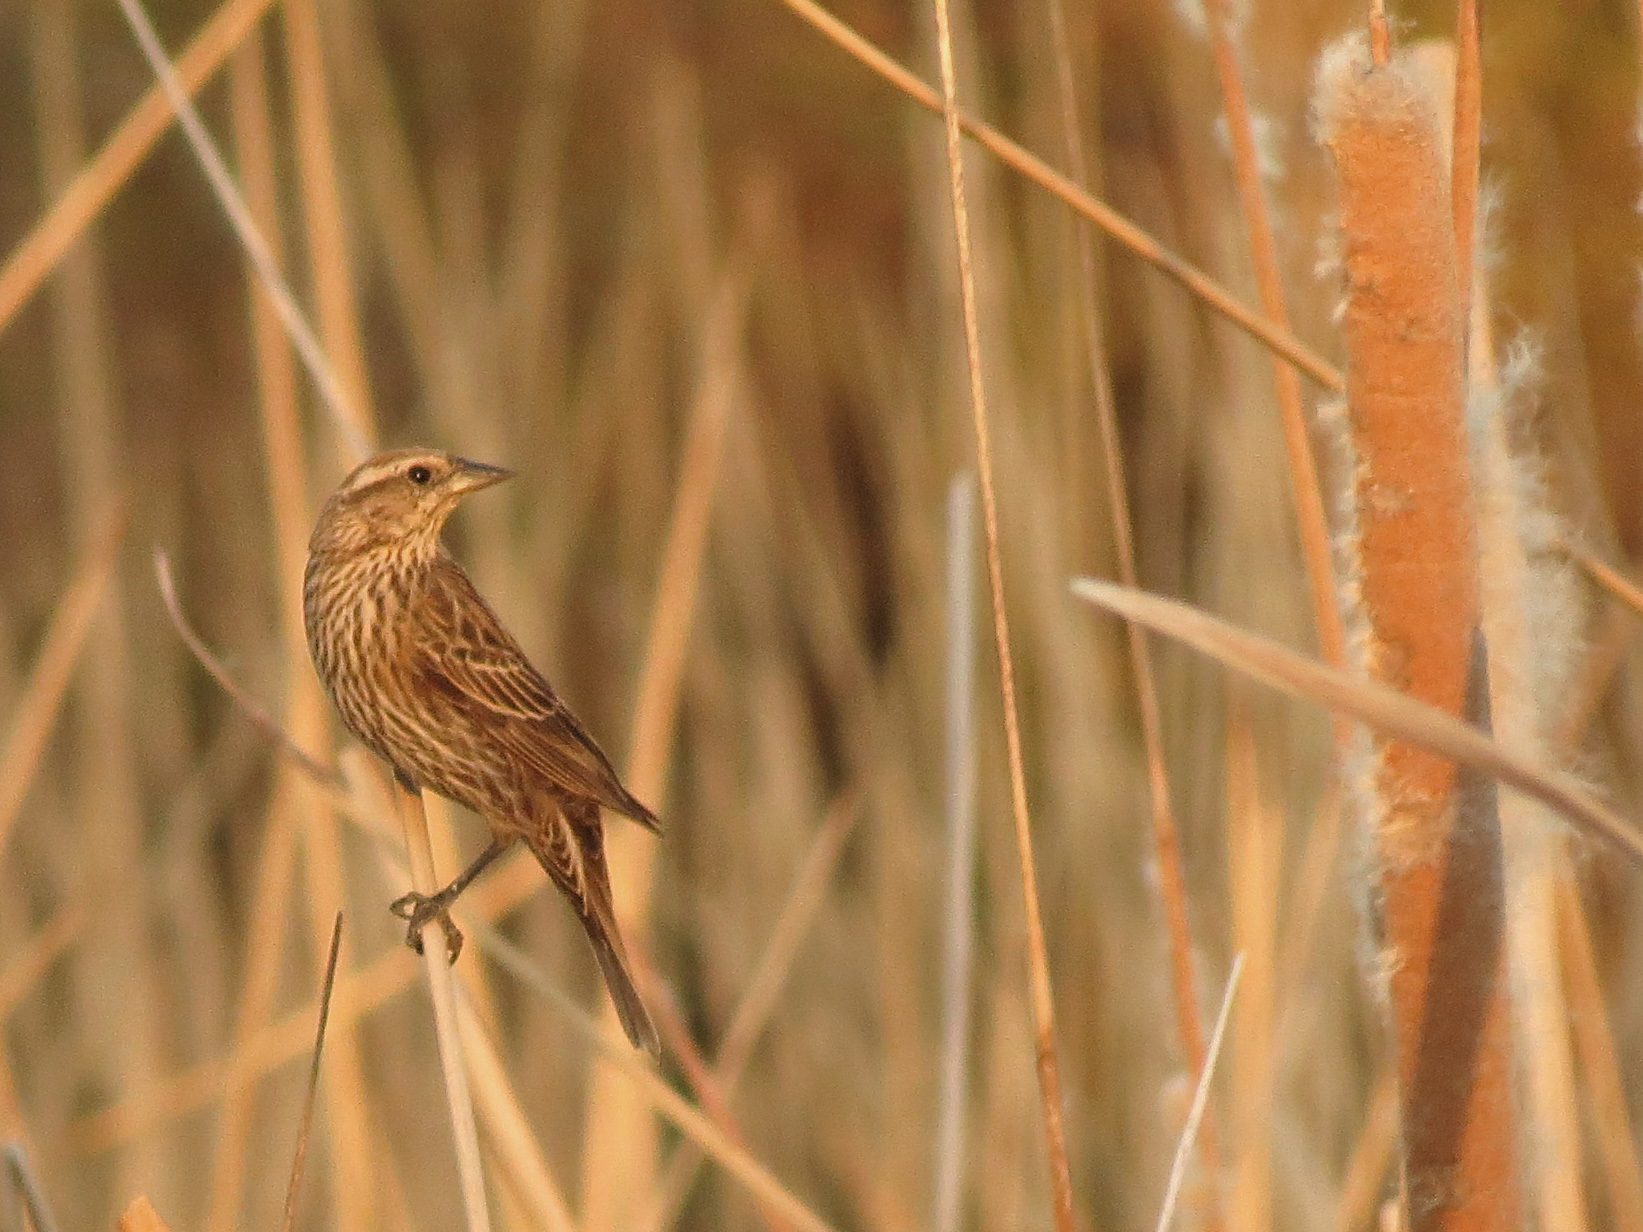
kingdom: Animalia
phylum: Chordata
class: Aves
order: Passeriformes
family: Icteridae
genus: Agelaius
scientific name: Agelaius phoeniceus
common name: Red-winged blackbird
